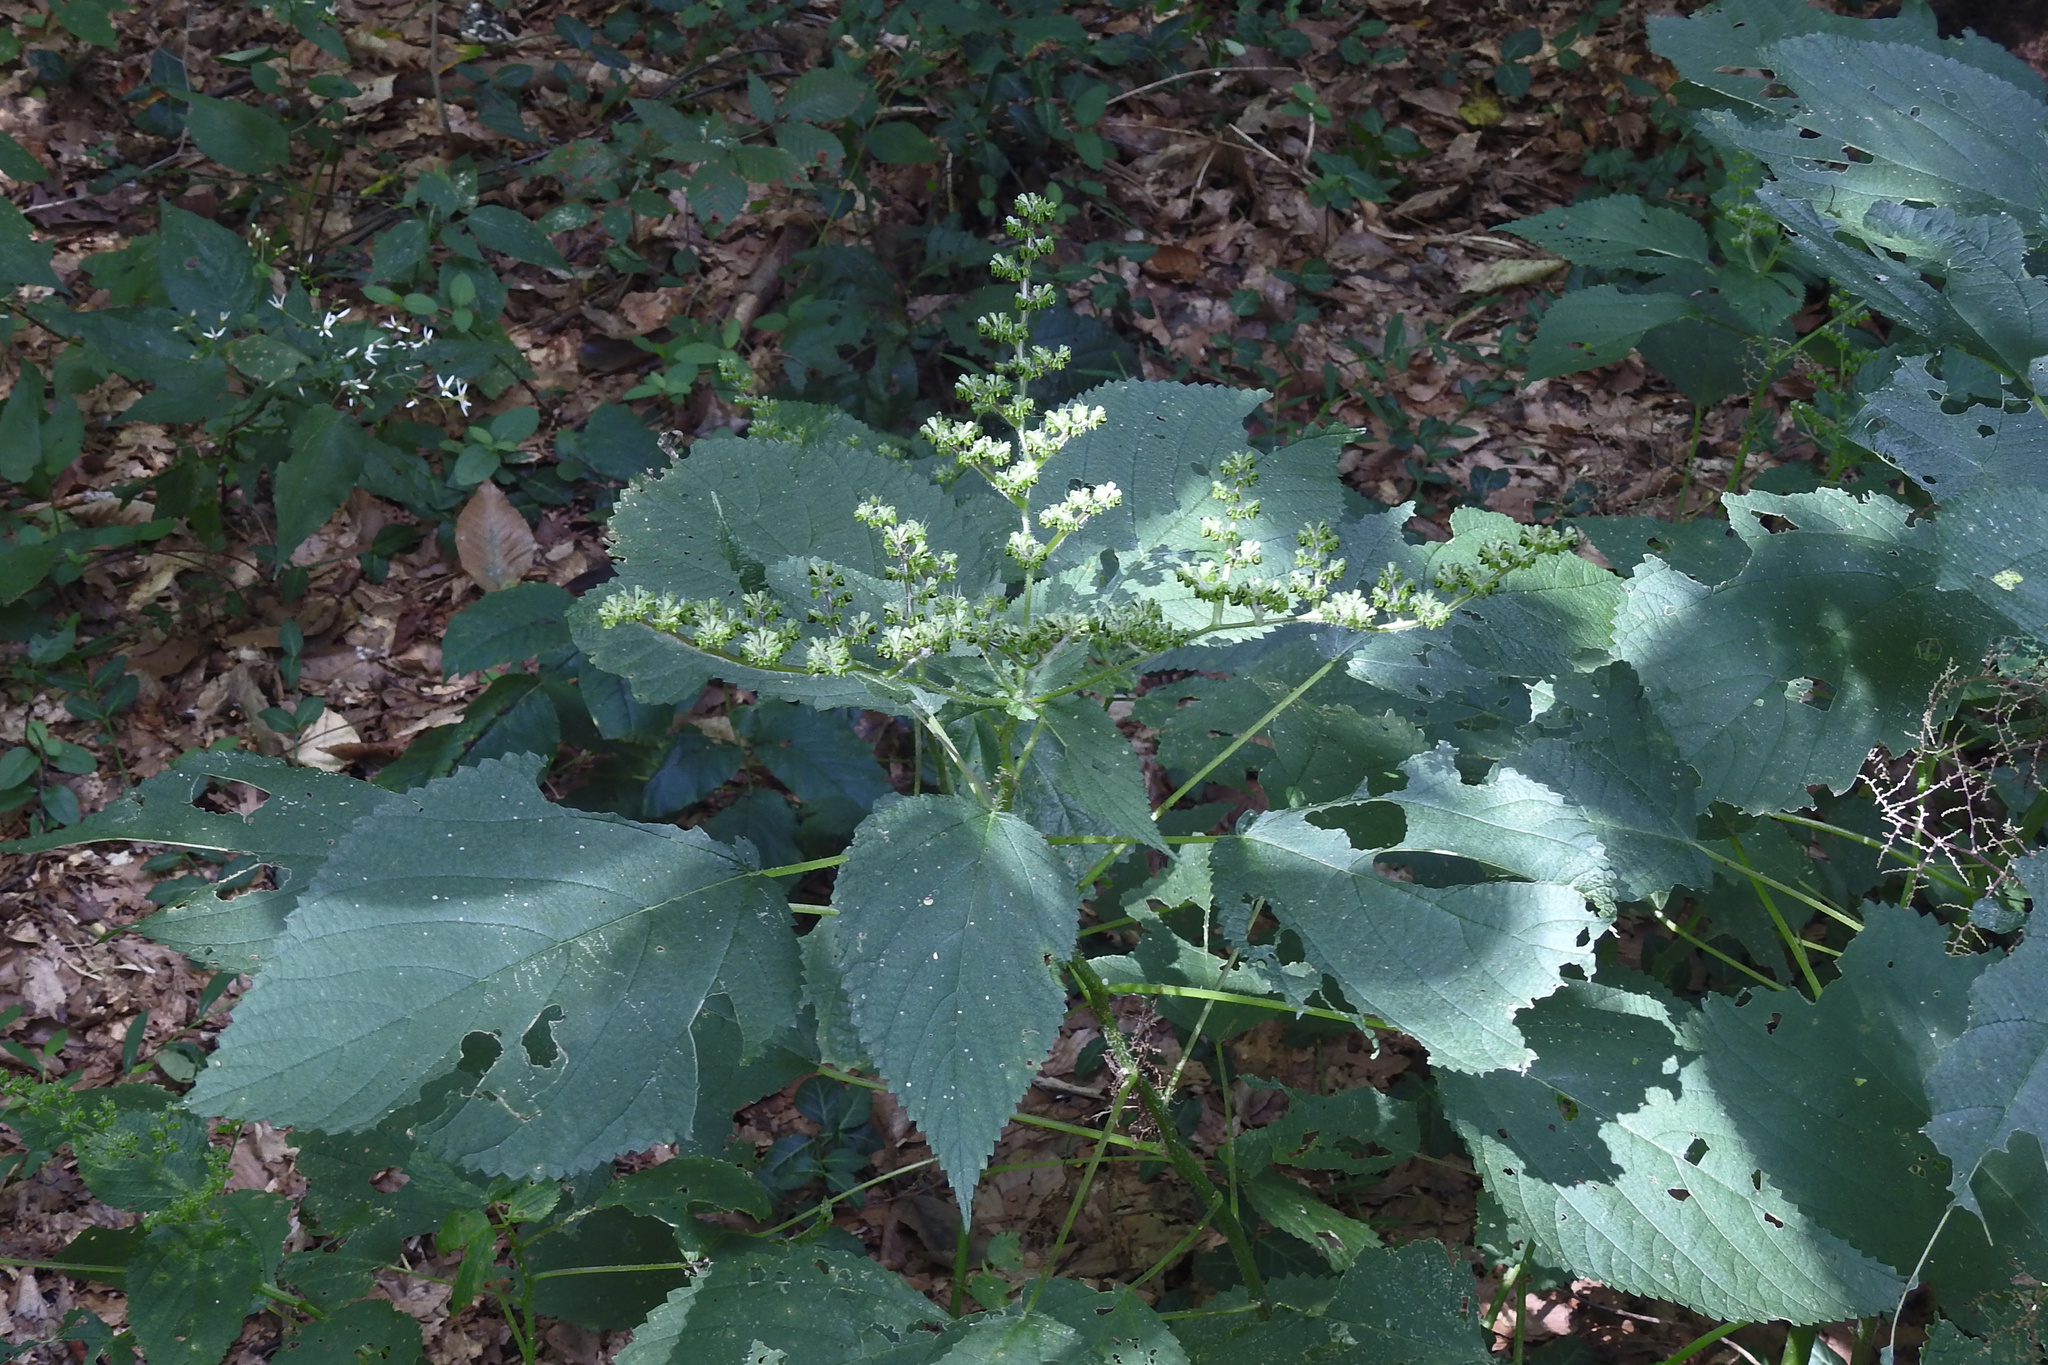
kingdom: Plantae
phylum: Tracheophyta
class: Magnoliopsida
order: Rosales
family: Urticaceae
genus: Laportea
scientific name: Laportea canadensis
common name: Canada nettle
